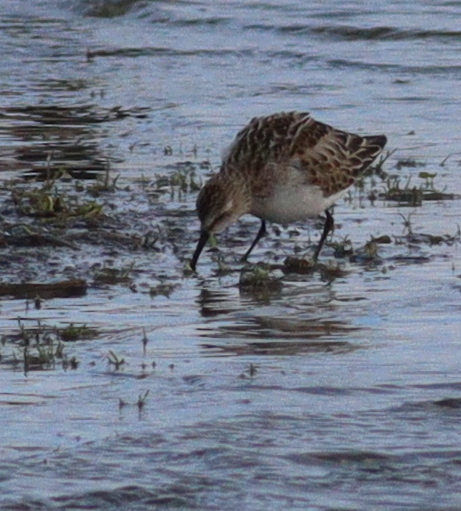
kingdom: Animalia
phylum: Chordata
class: Aves
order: Charadriiformes
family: Scolopacidae
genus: Calidris
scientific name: Calidris minuta
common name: Little stint
